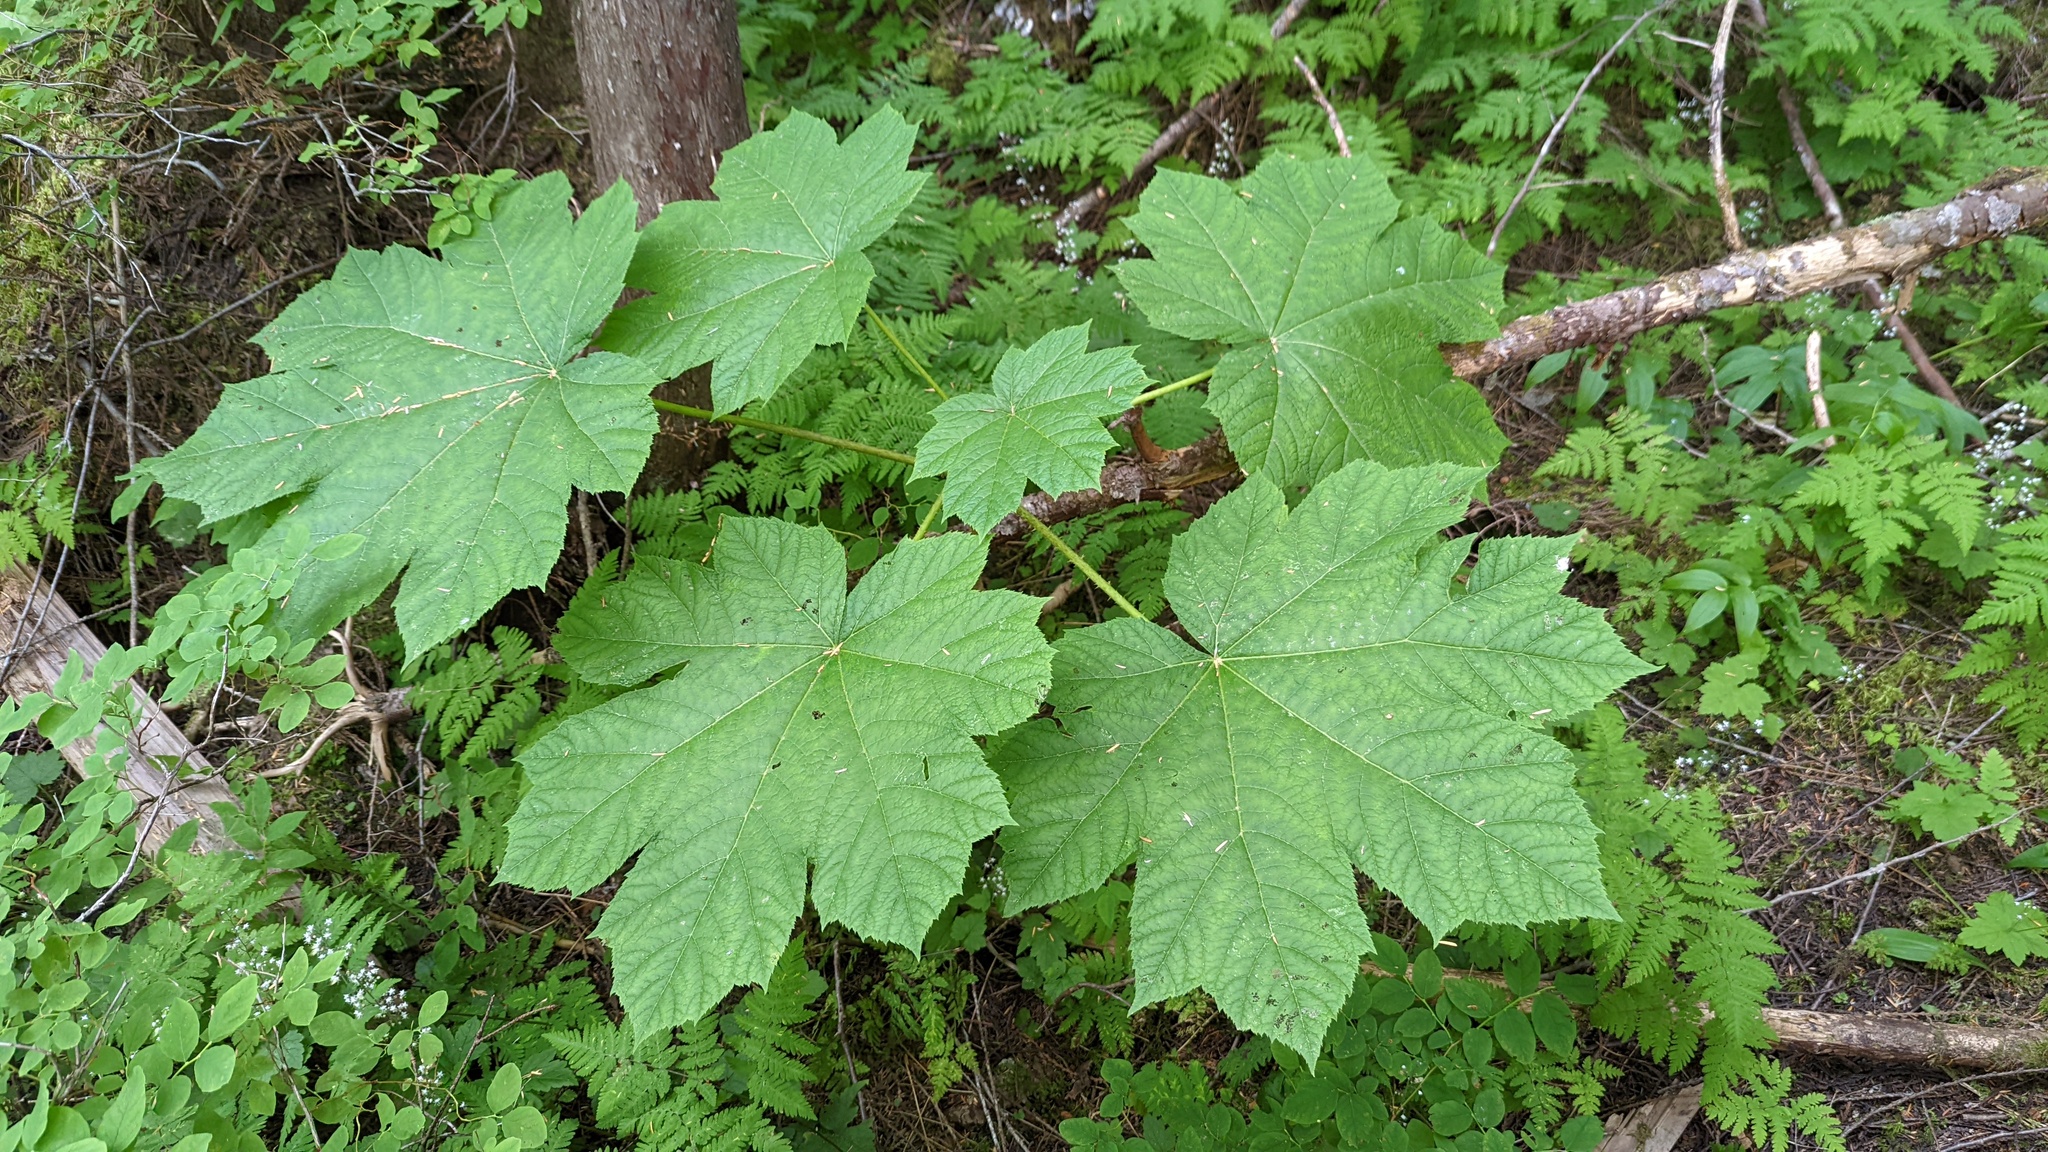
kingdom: Plantae
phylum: Tracheophyta
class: Magnoliopsida
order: Apiales
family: Araliaceae
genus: Oplopanax
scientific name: Oplopanax horridus
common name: Devil's walking-stick
